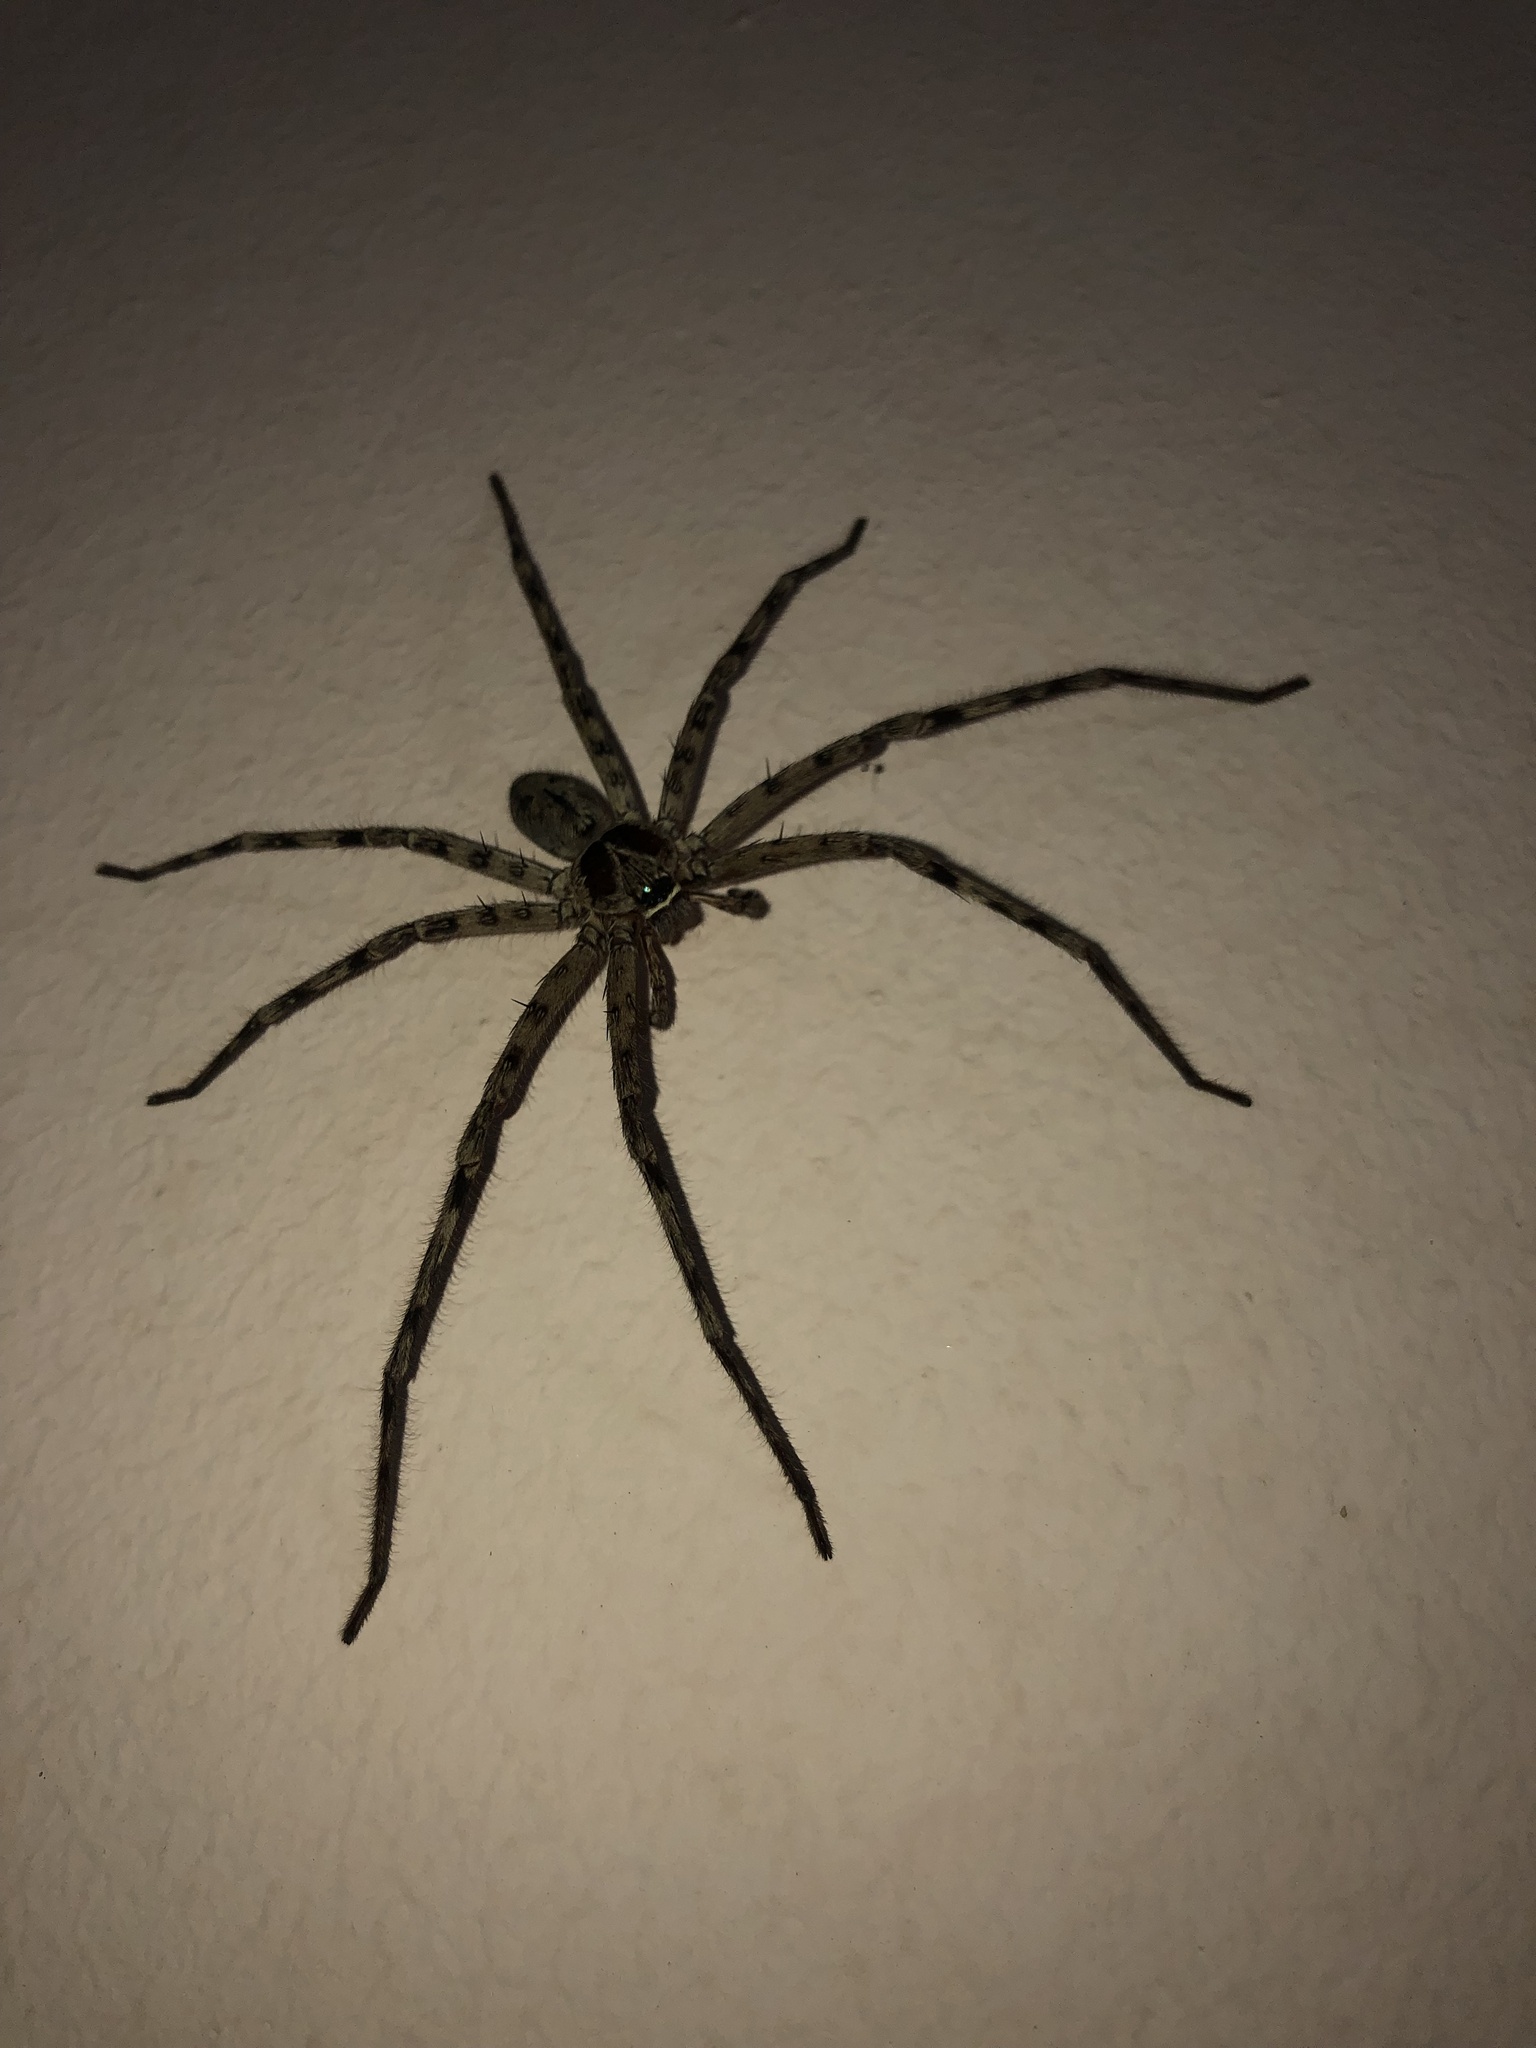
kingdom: Animalia
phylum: Arthropoda
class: Arachnida
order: Araneae
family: Sparassidae
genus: Heteropoda
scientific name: Heteropoda venatoria
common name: Huntsman spider
